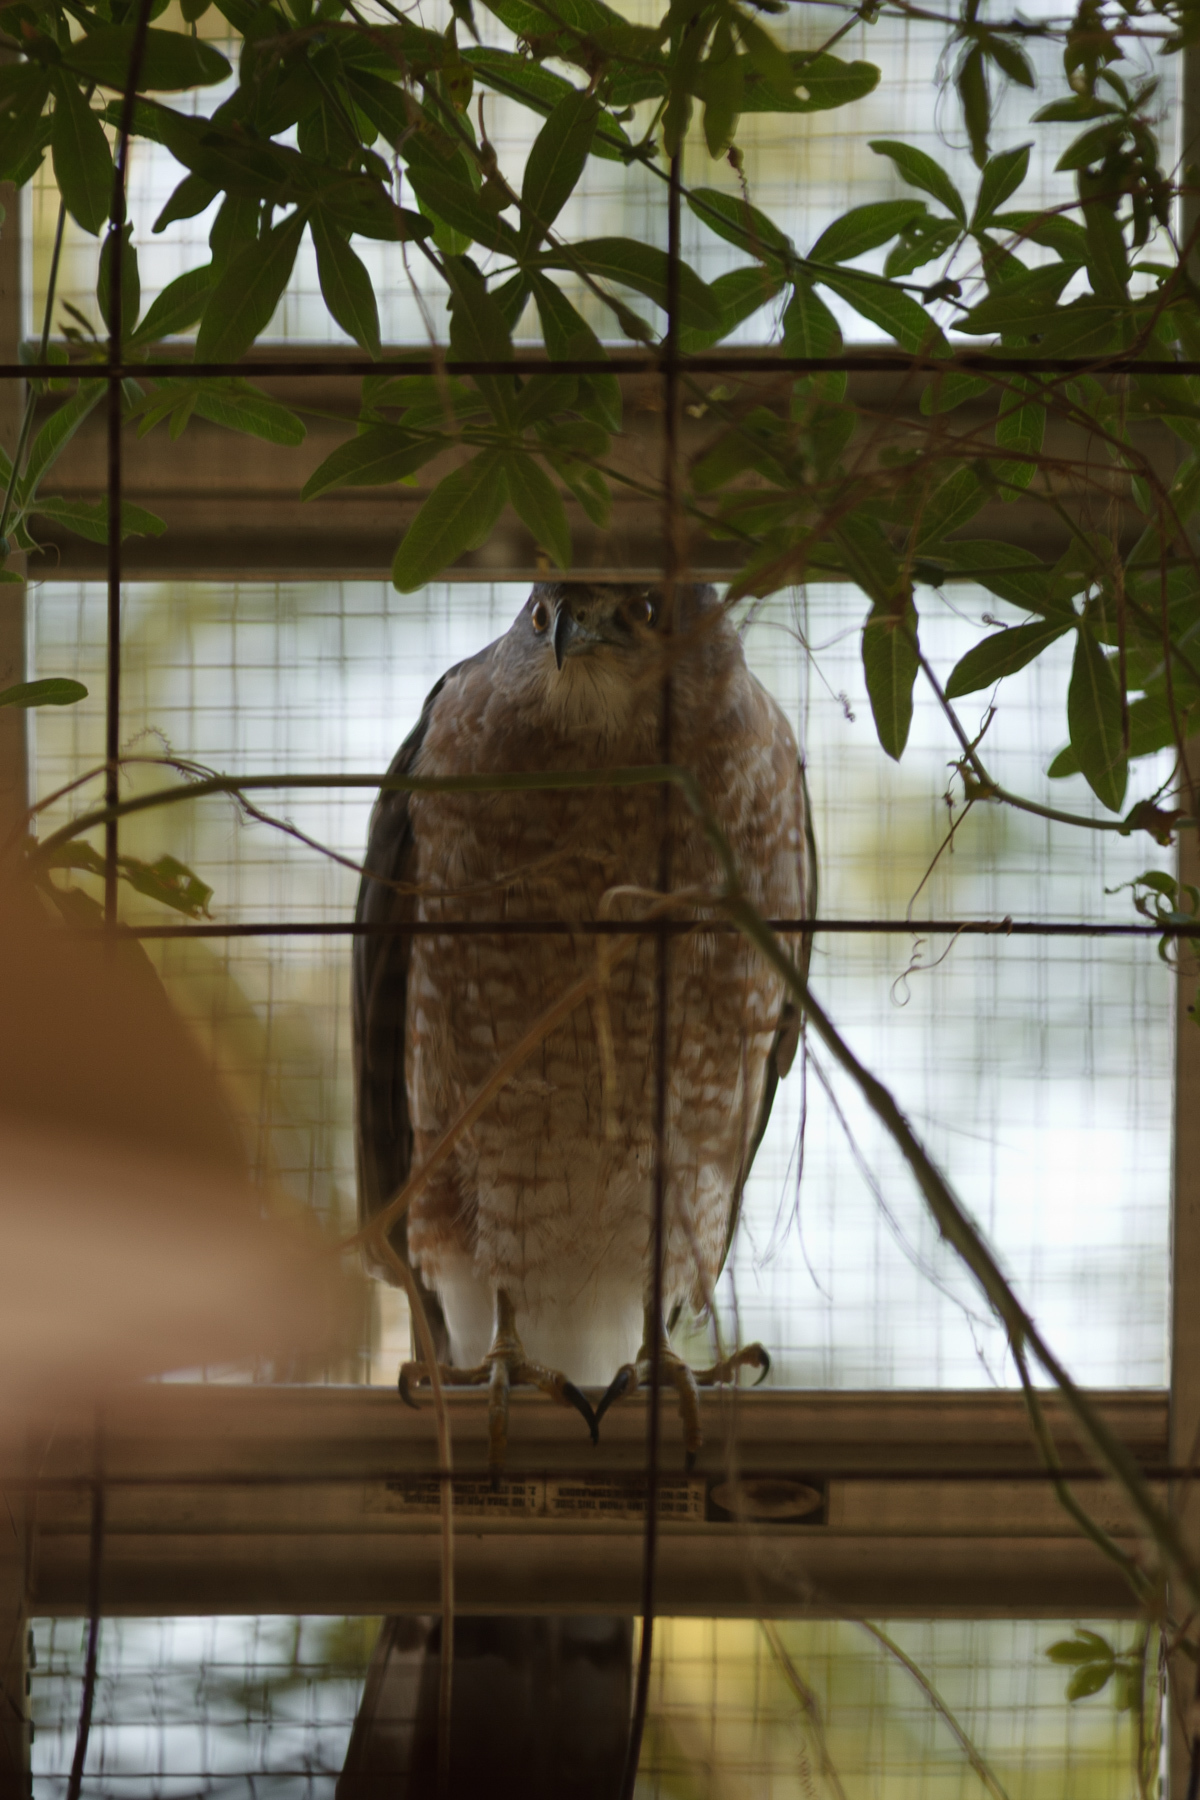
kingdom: Animalia
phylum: Chordata
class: Aves
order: Accipitriformes
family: Accipitridae
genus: Accipiter
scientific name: Accipiter cooperii
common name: Cooper's hawk
